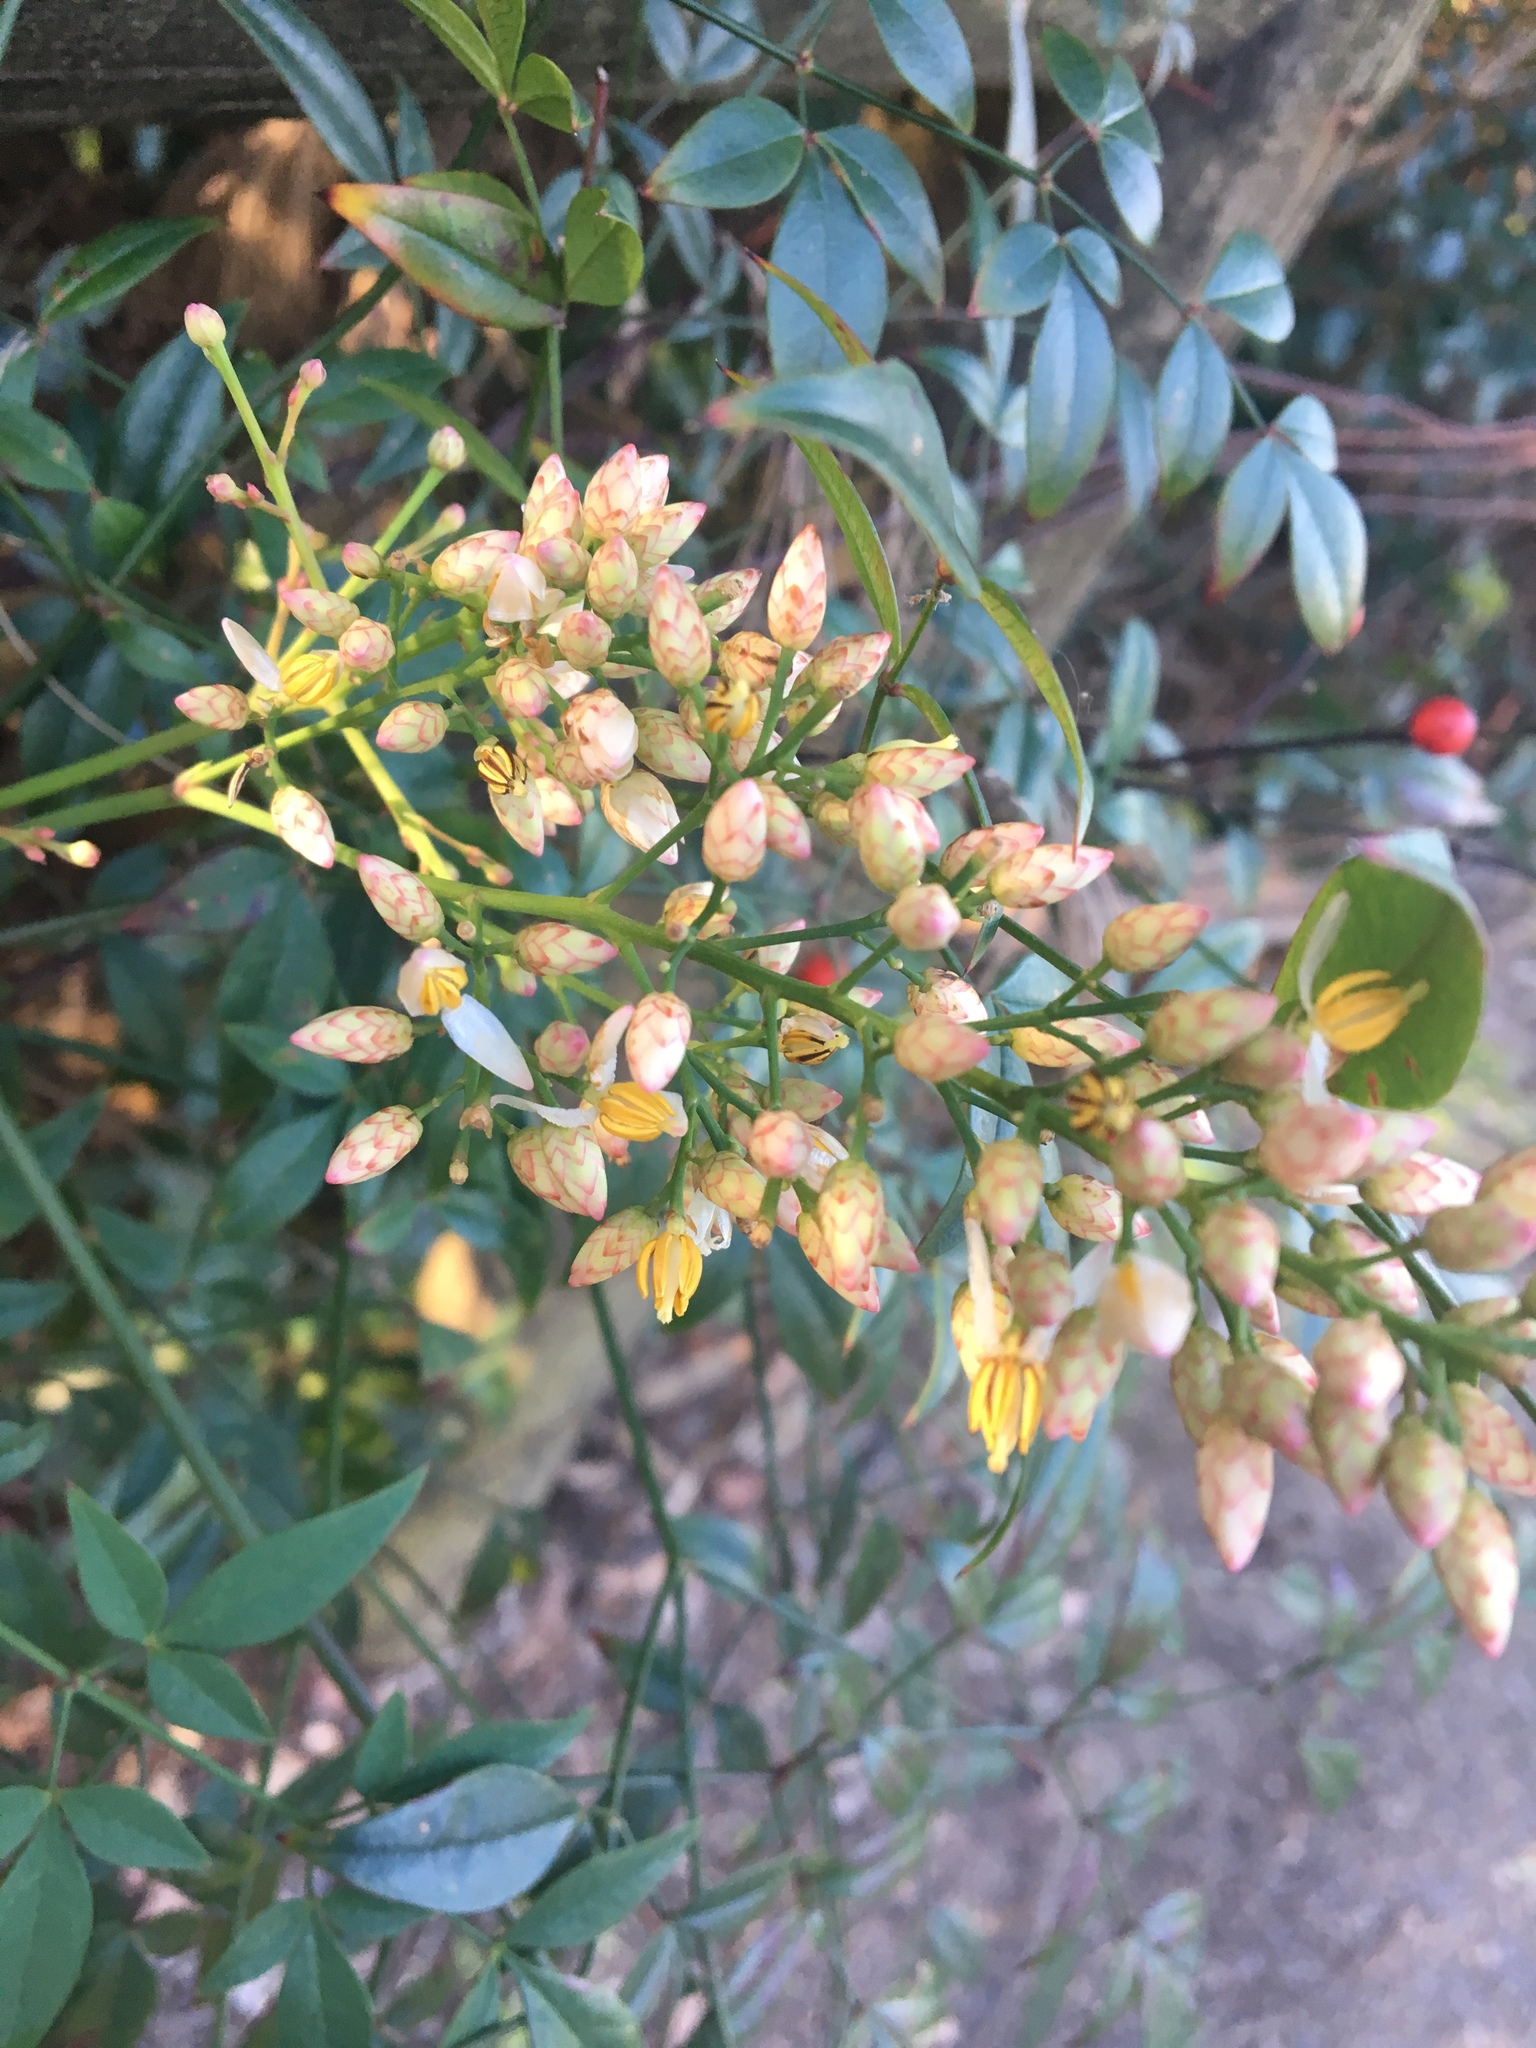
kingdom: Plantae
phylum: Tracheophyta
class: Magnoliopsida
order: Ranunculales
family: Berberidaceae
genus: Nandina
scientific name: Nandina domestica
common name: Sacred bamboo
